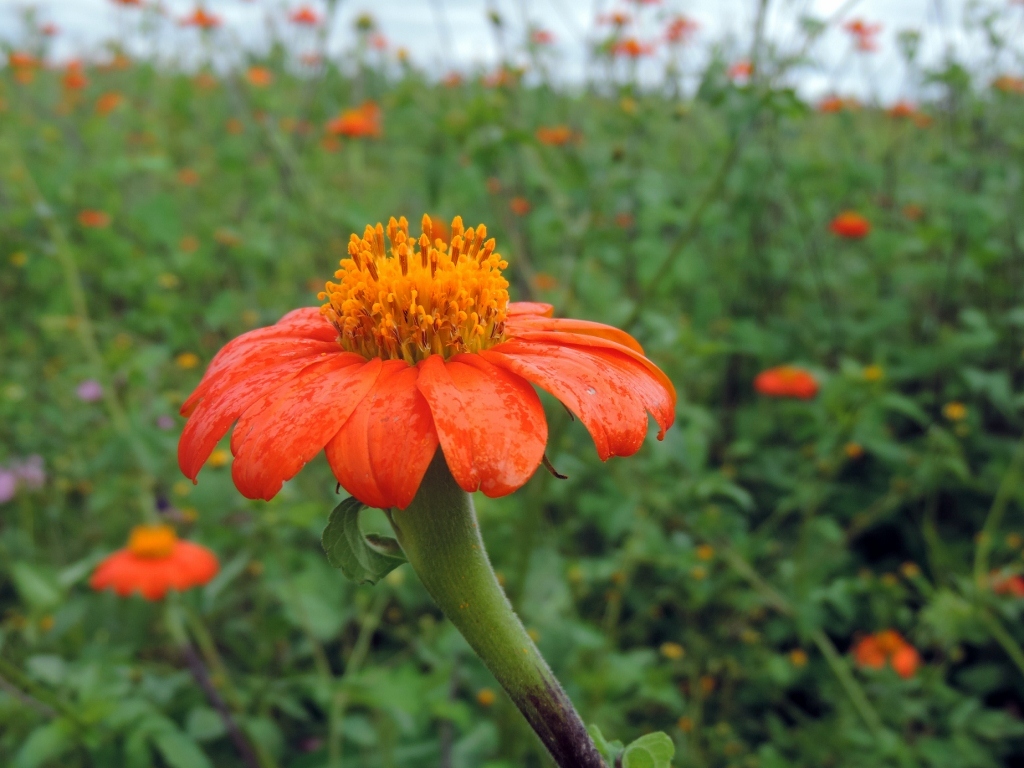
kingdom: Plantae
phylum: Tracheophyta
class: Magnoliopsida
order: Asterales
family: Asteraceae
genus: Tithonia
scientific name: Tithonia rotundifolia
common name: Sunflower
